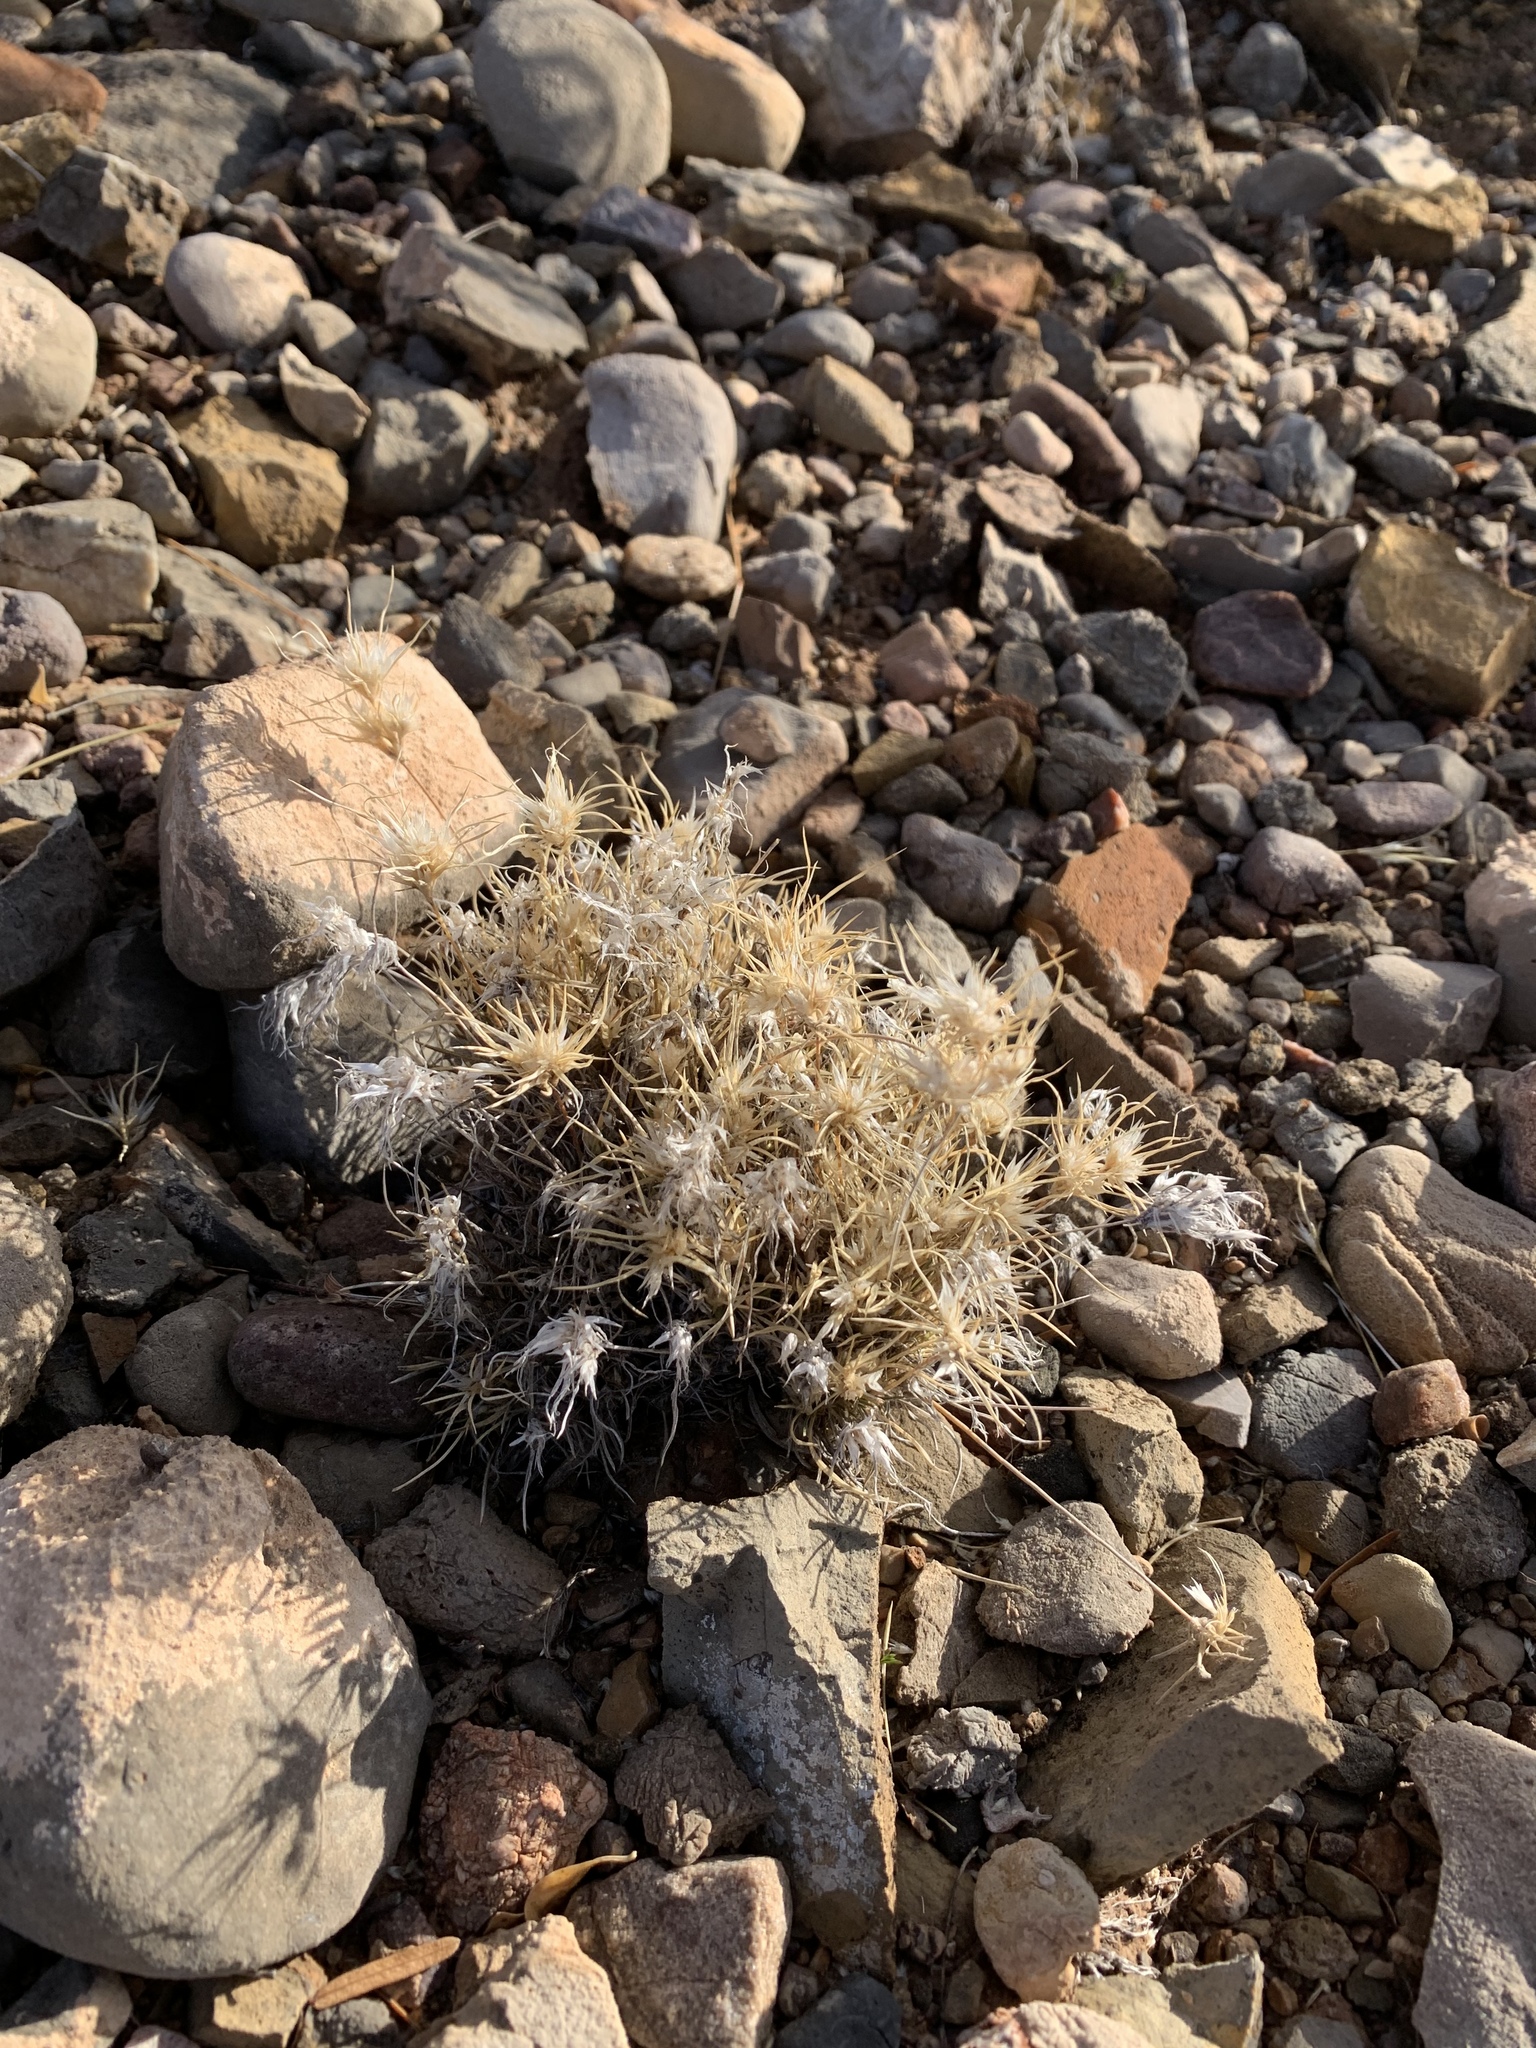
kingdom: Plantae
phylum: Tracheophyta
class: Liliopsida
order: Poales
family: Poaceae
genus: Dasyochloa
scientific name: Dasyochloa pulchella
